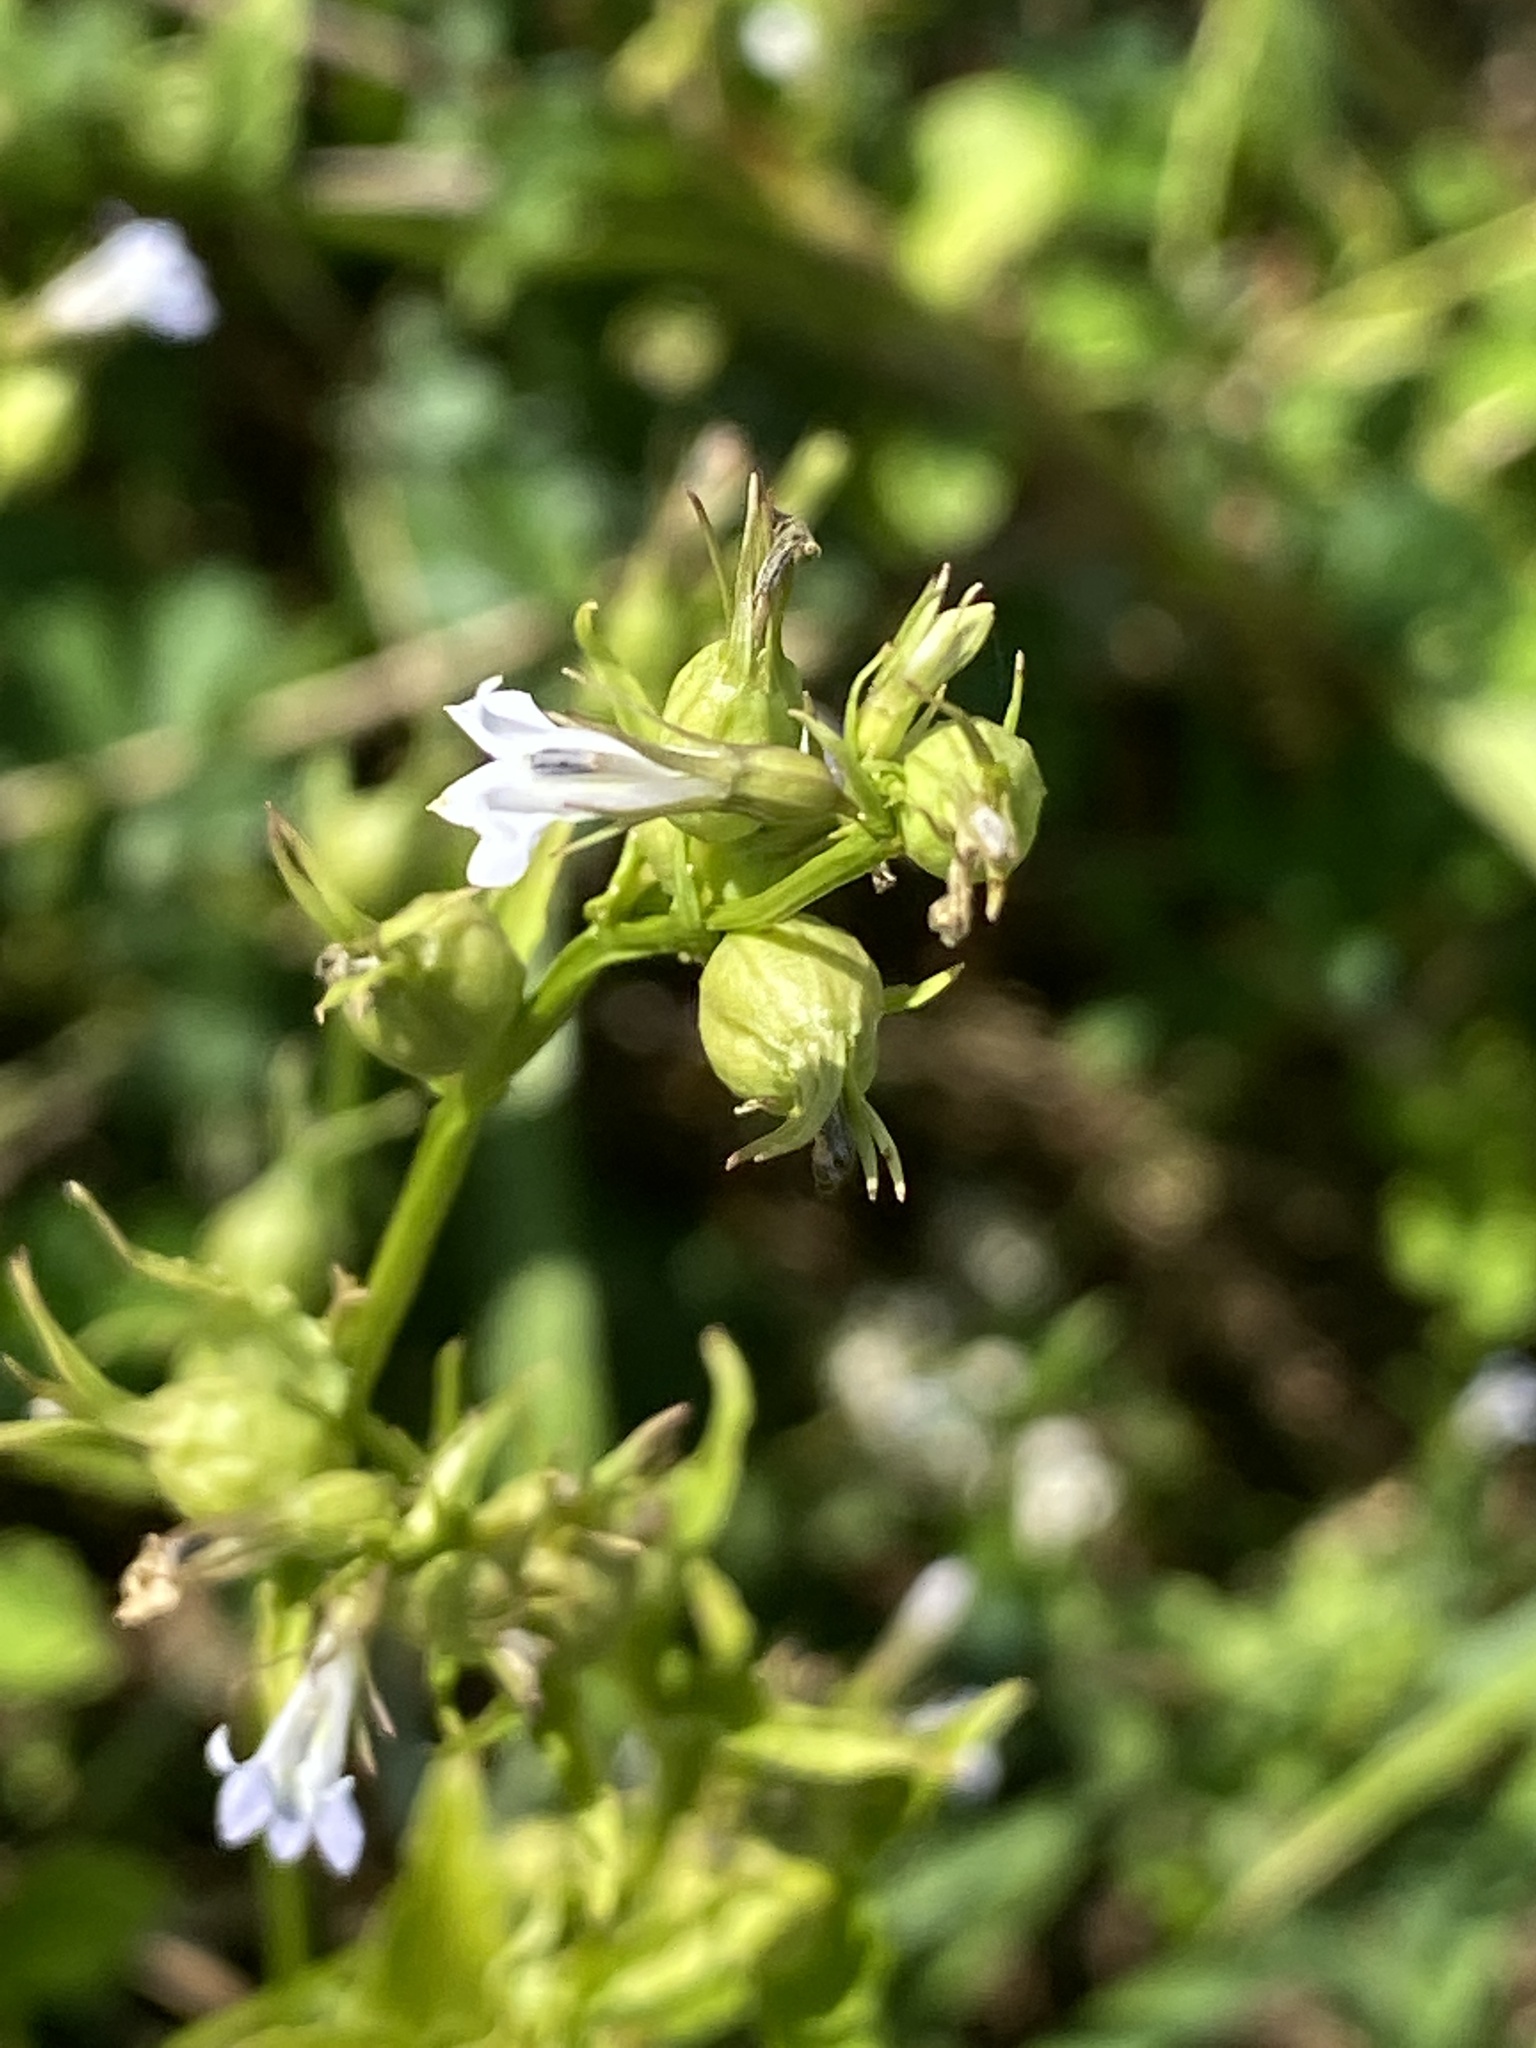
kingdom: Plantae
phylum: Tracheophyta
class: Magnoliopsida
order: Asterales
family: Campanulaceae
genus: Lobelia
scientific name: Lobelia inflata
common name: Indian tobacco
